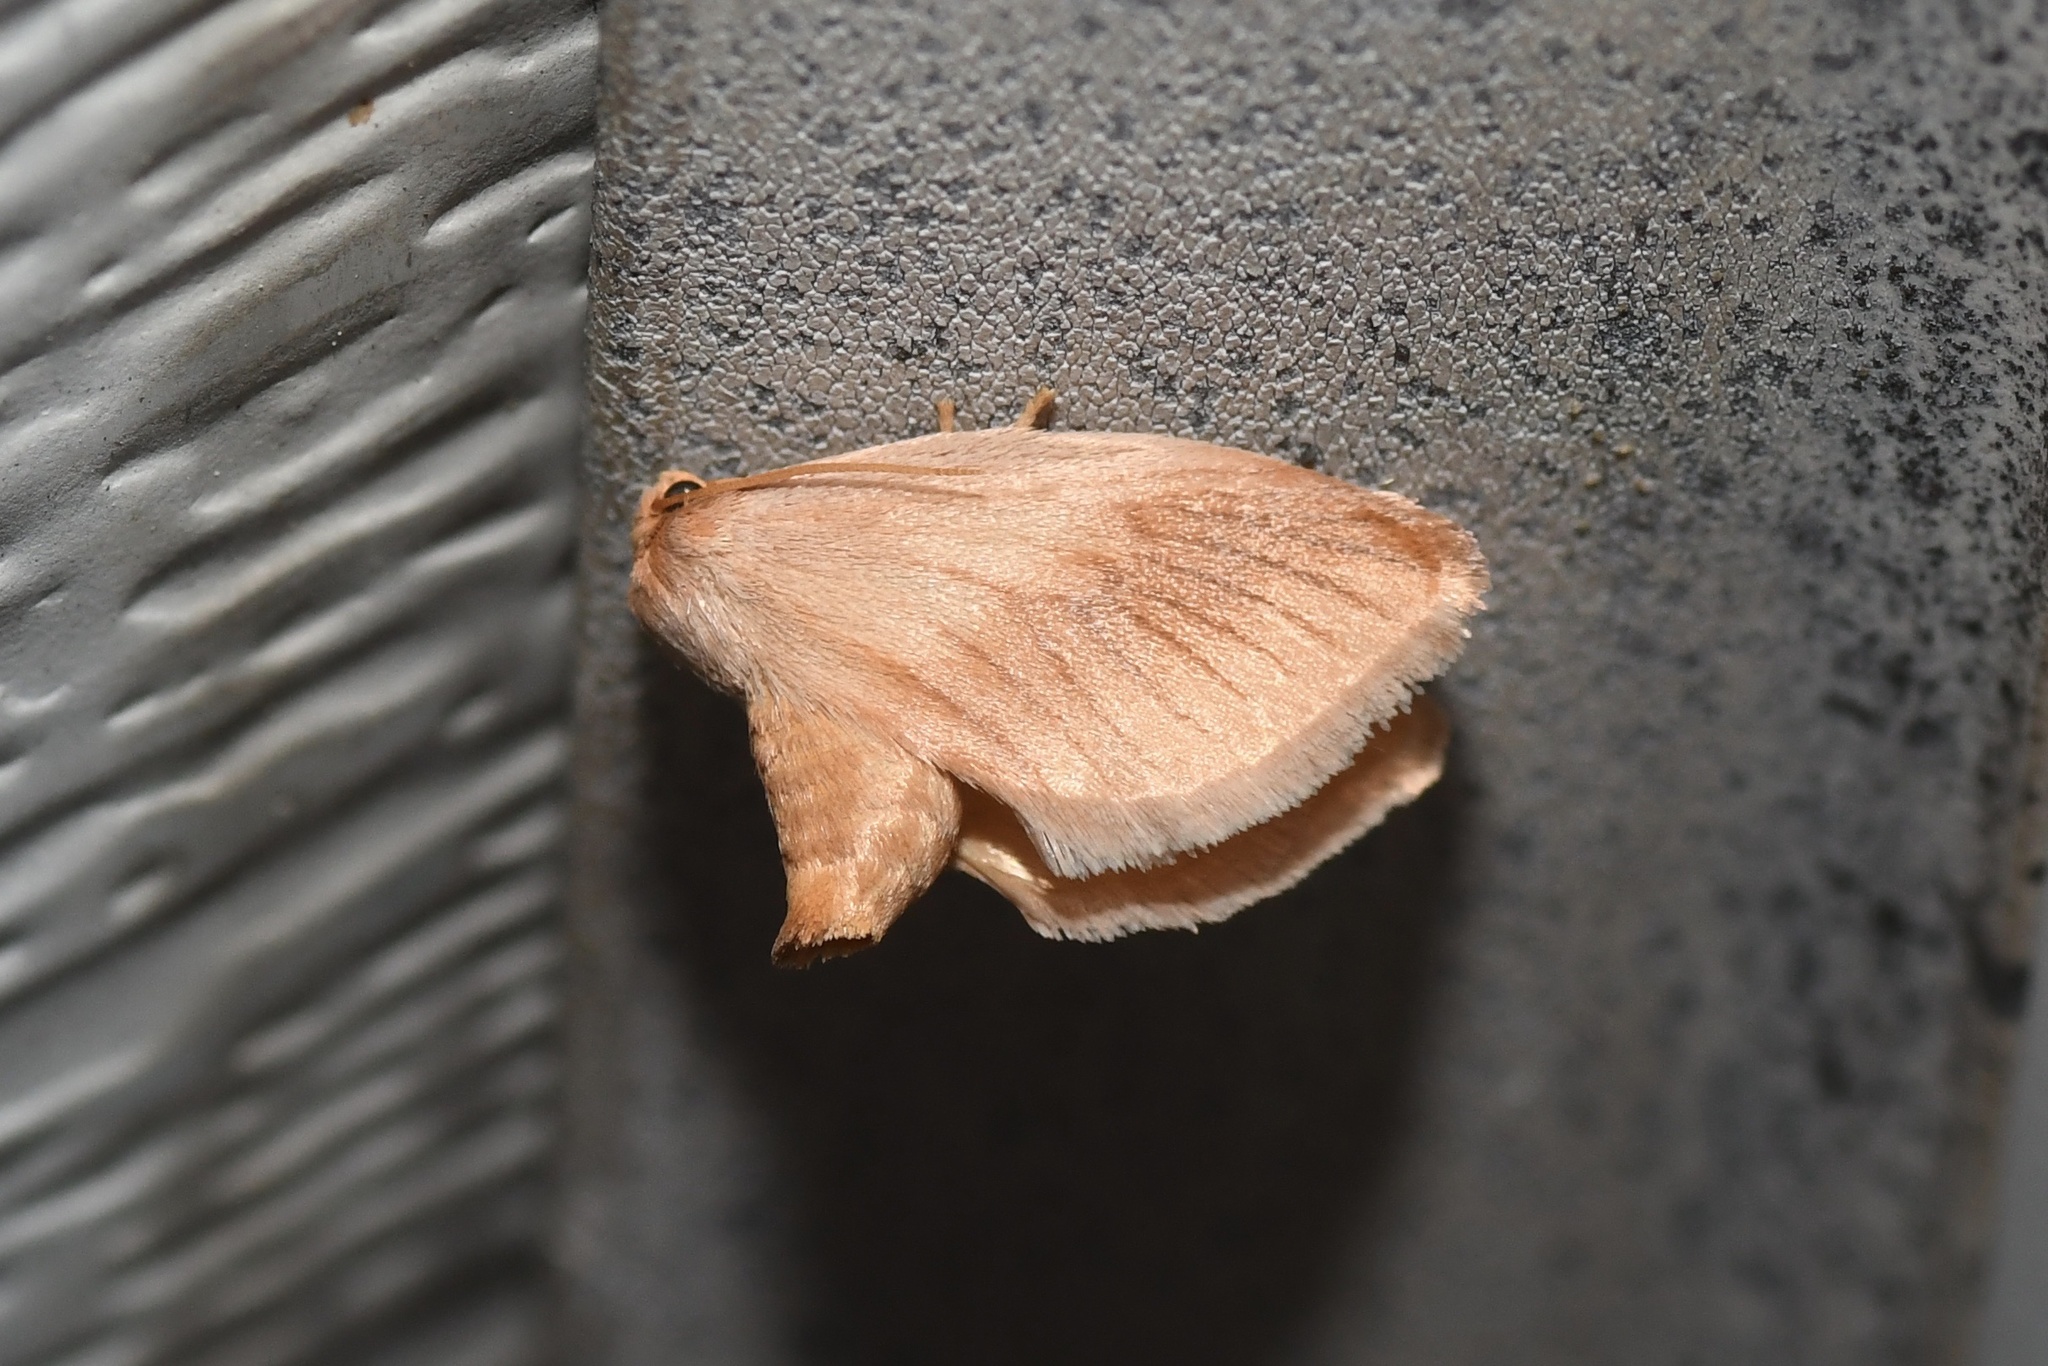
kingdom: Animalia
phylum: Arthropoda
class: Insecta
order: Lepidoptera
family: Limacodidae
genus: Tortricidia
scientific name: Tortricidia testacea
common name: Early button slug moth
